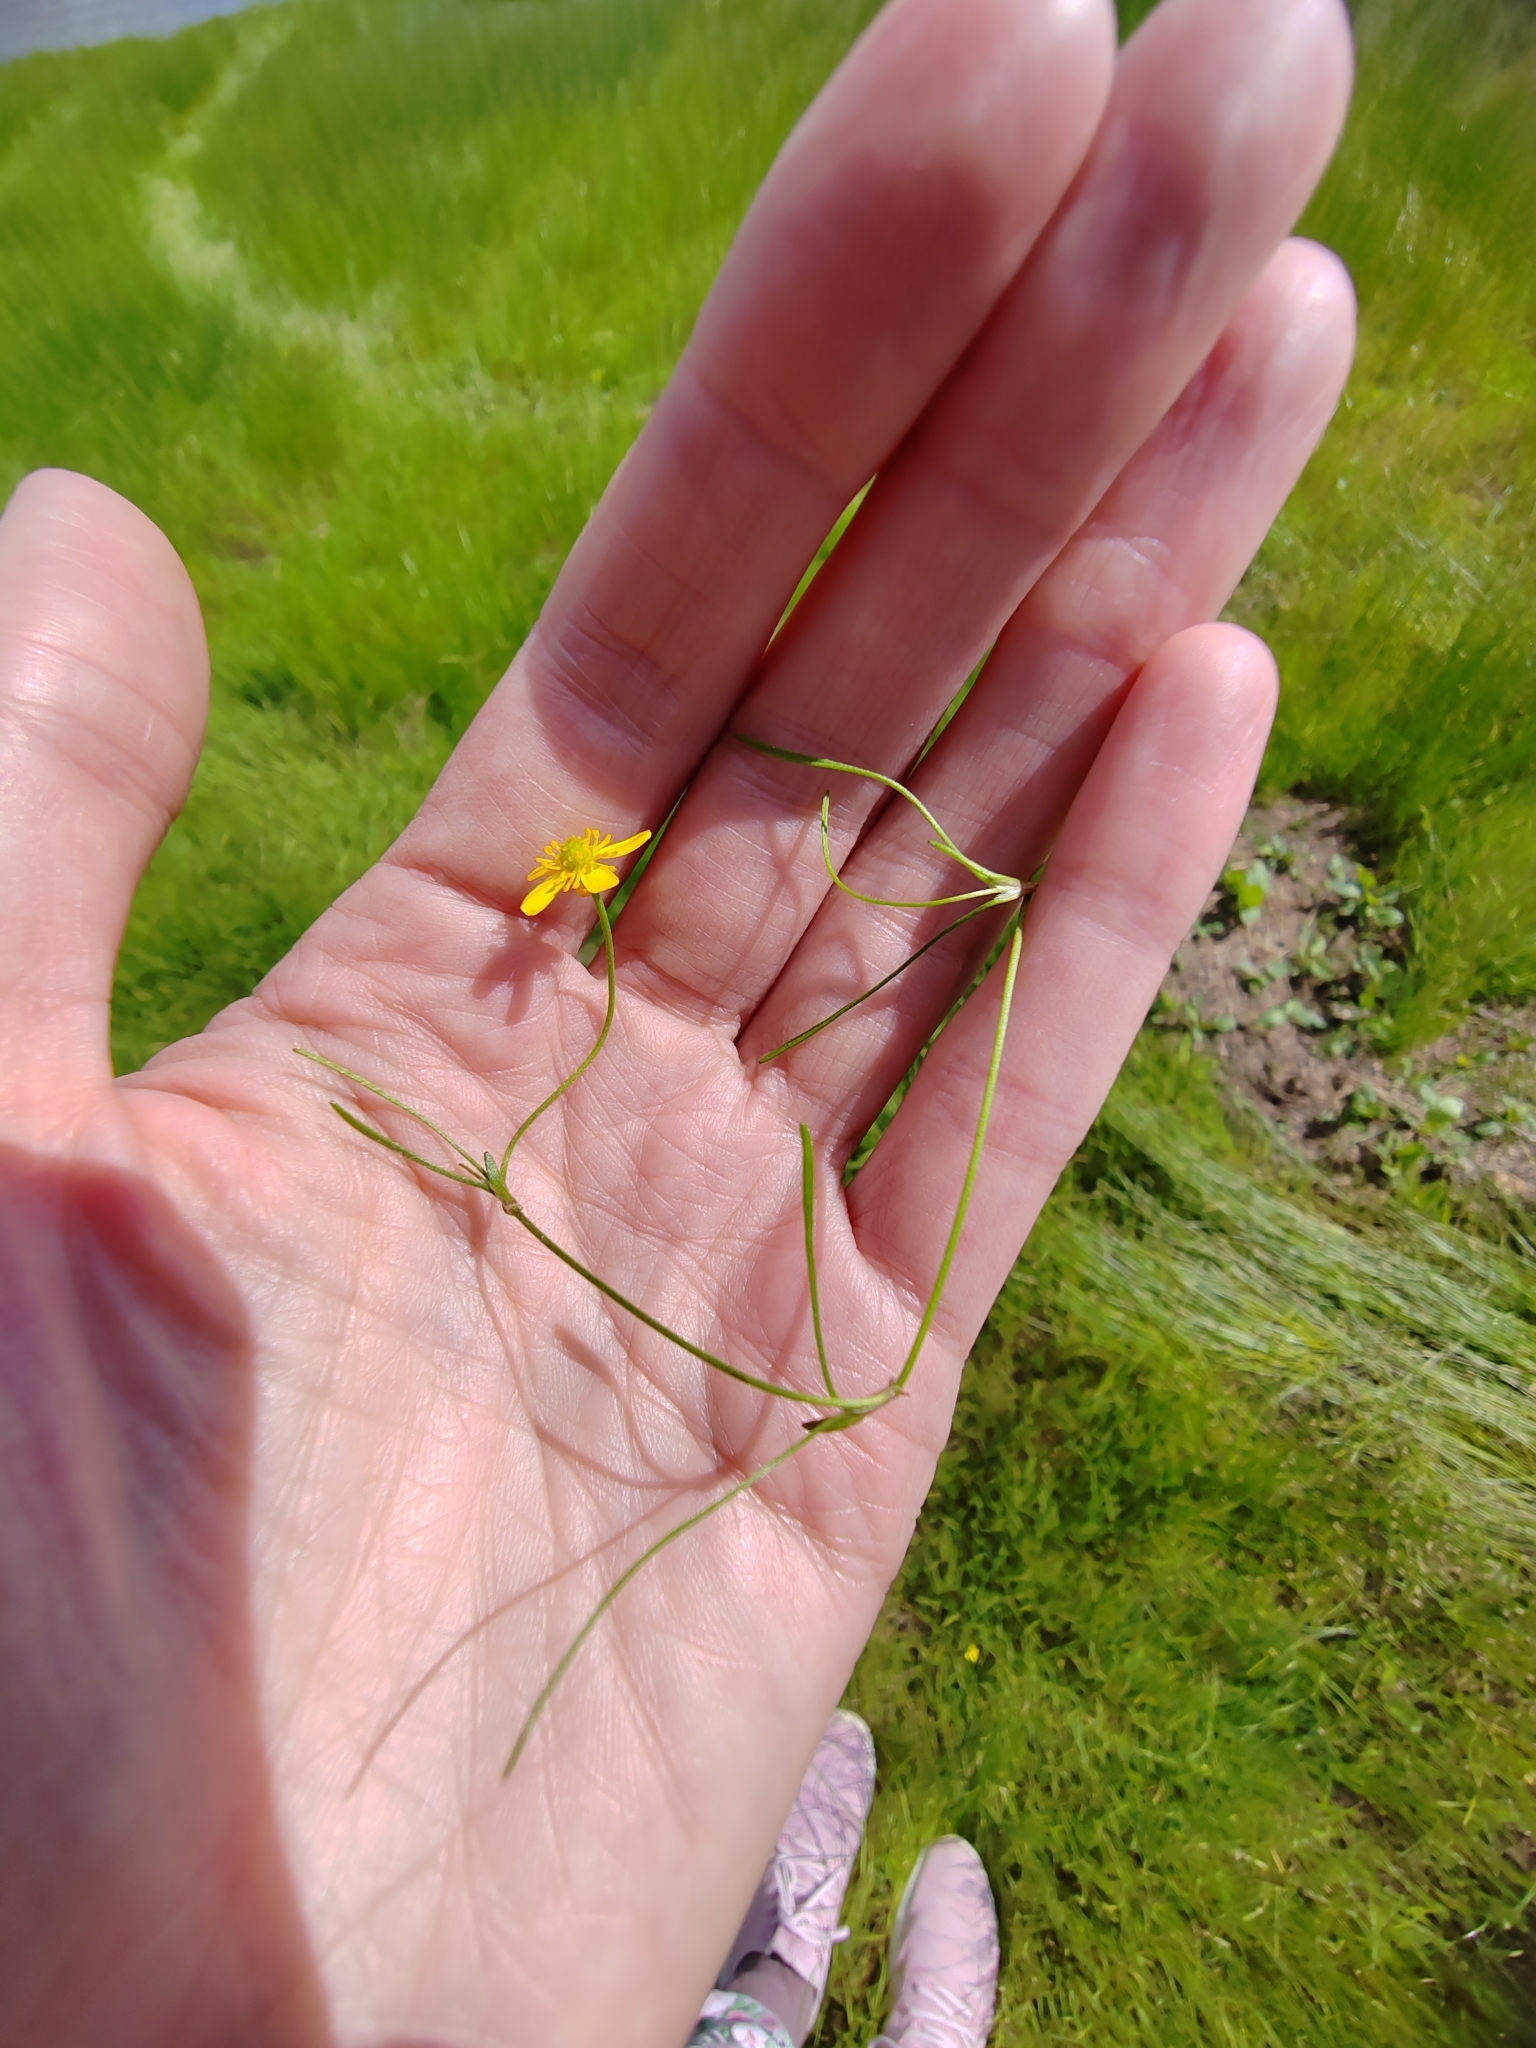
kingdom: Plantae
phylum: Tracheophyta
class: Magnoliopsida
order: Ranunculales
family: Ranunculaceae
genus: Ranunculus
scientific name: Ranunculus reptans
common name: Creeping spearwort
